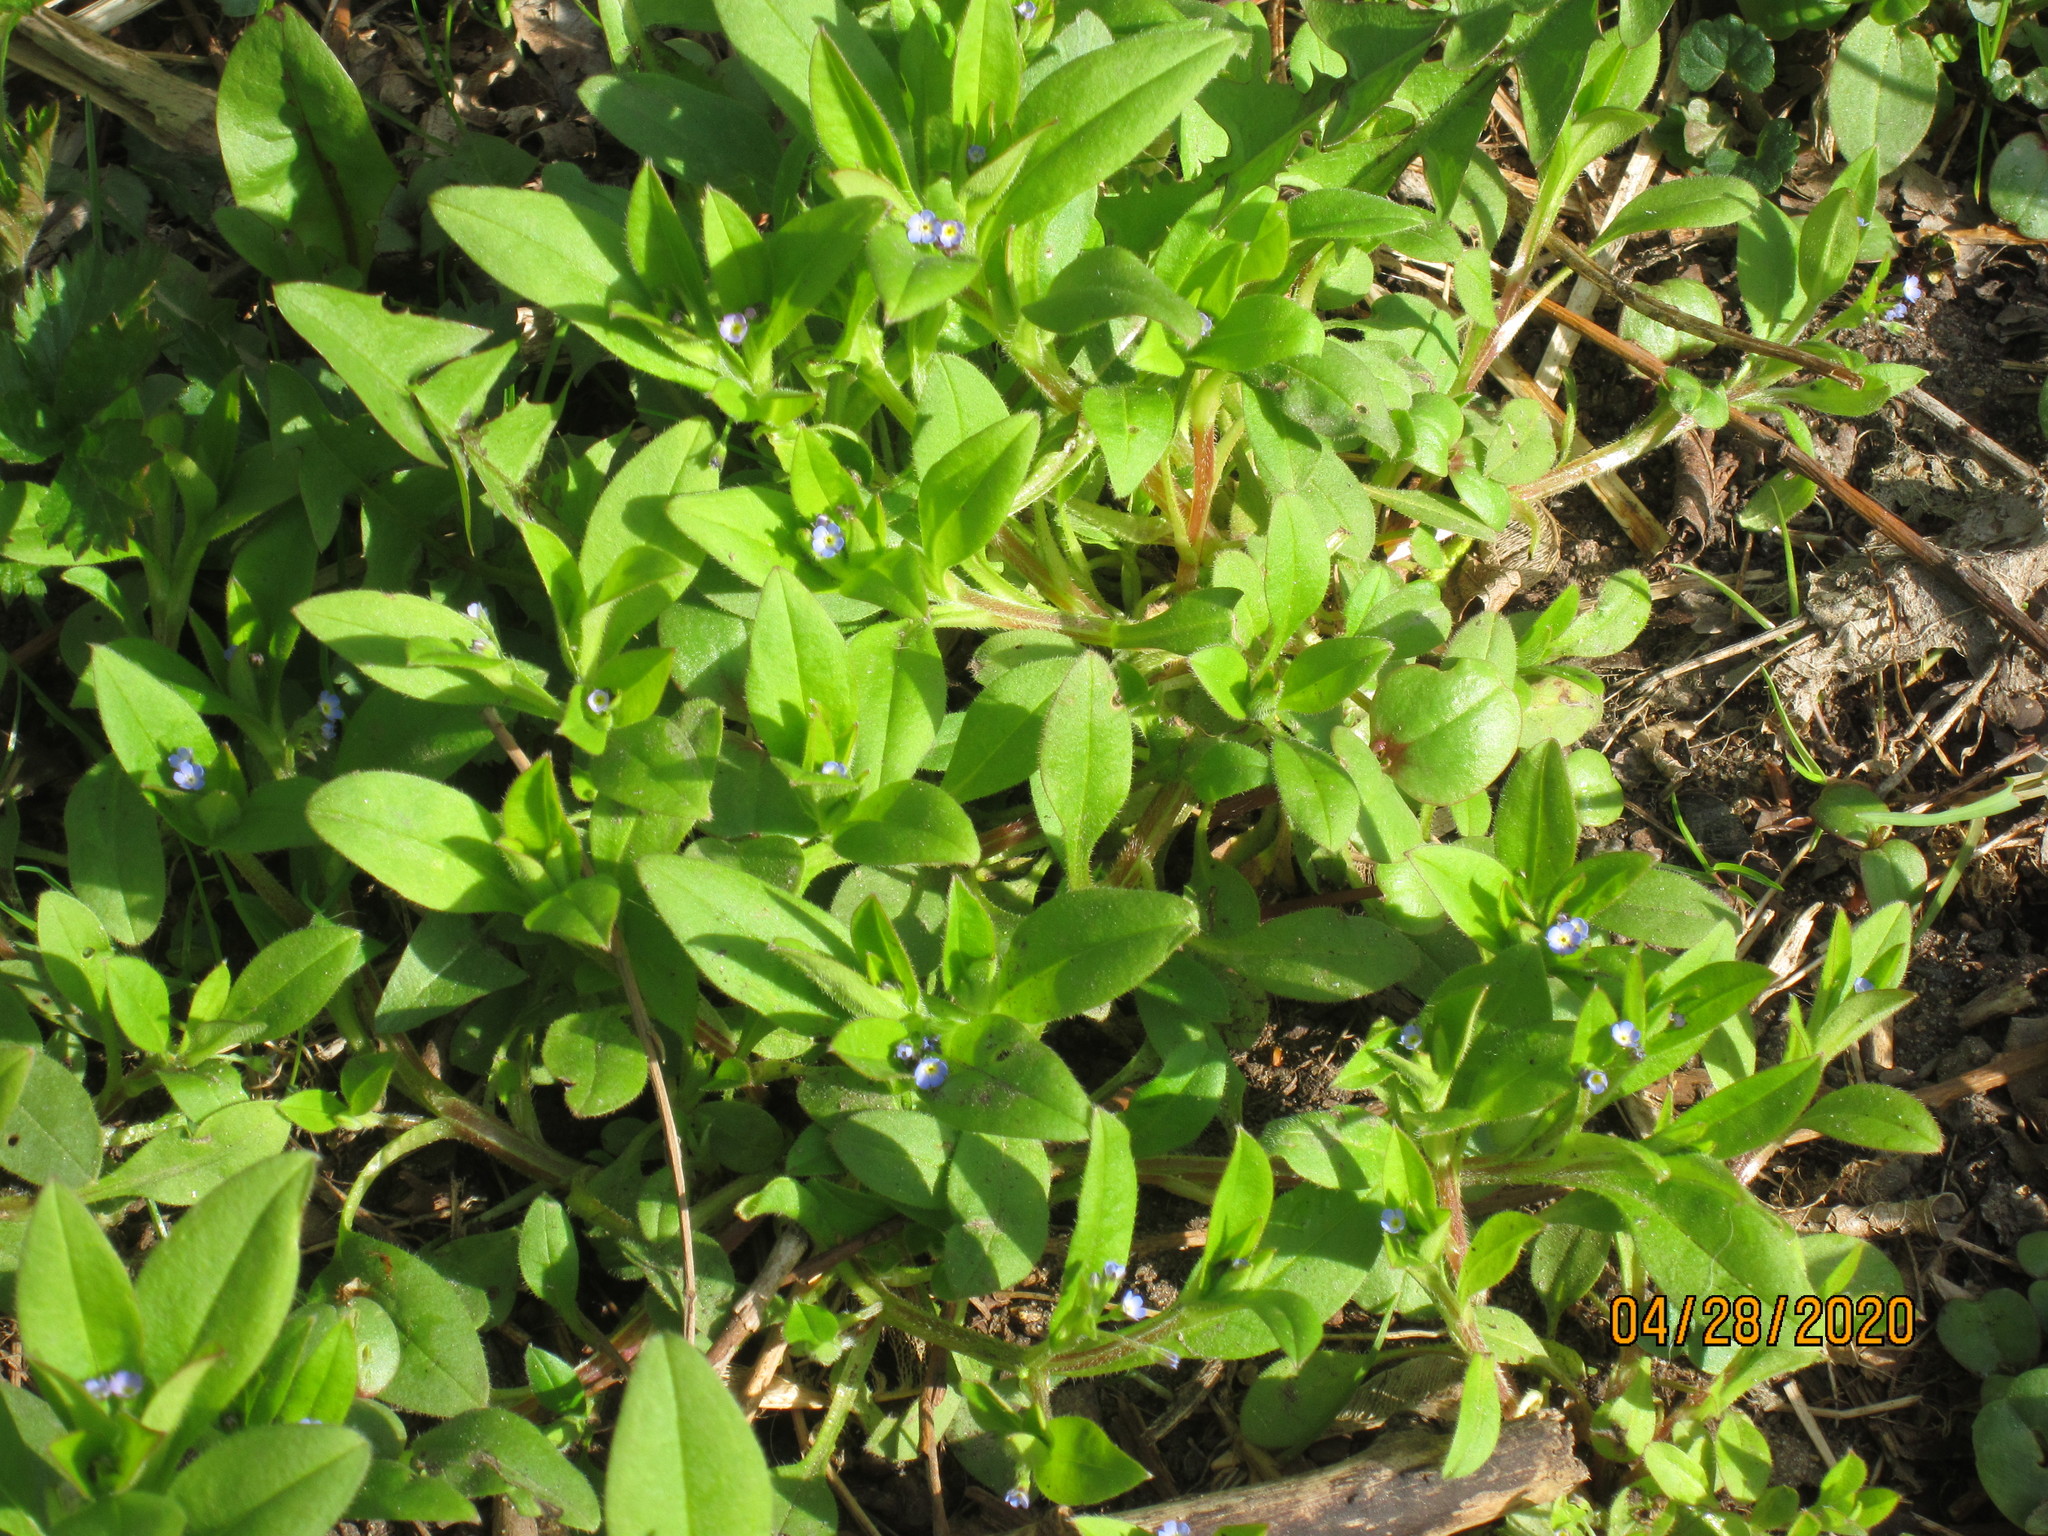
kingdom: Plantae
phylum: Tracheophyta
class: Magnoliopsida
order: Boraginales
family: Boraginaceae
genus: Myosotis
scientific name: Myosotis sparsiflora
